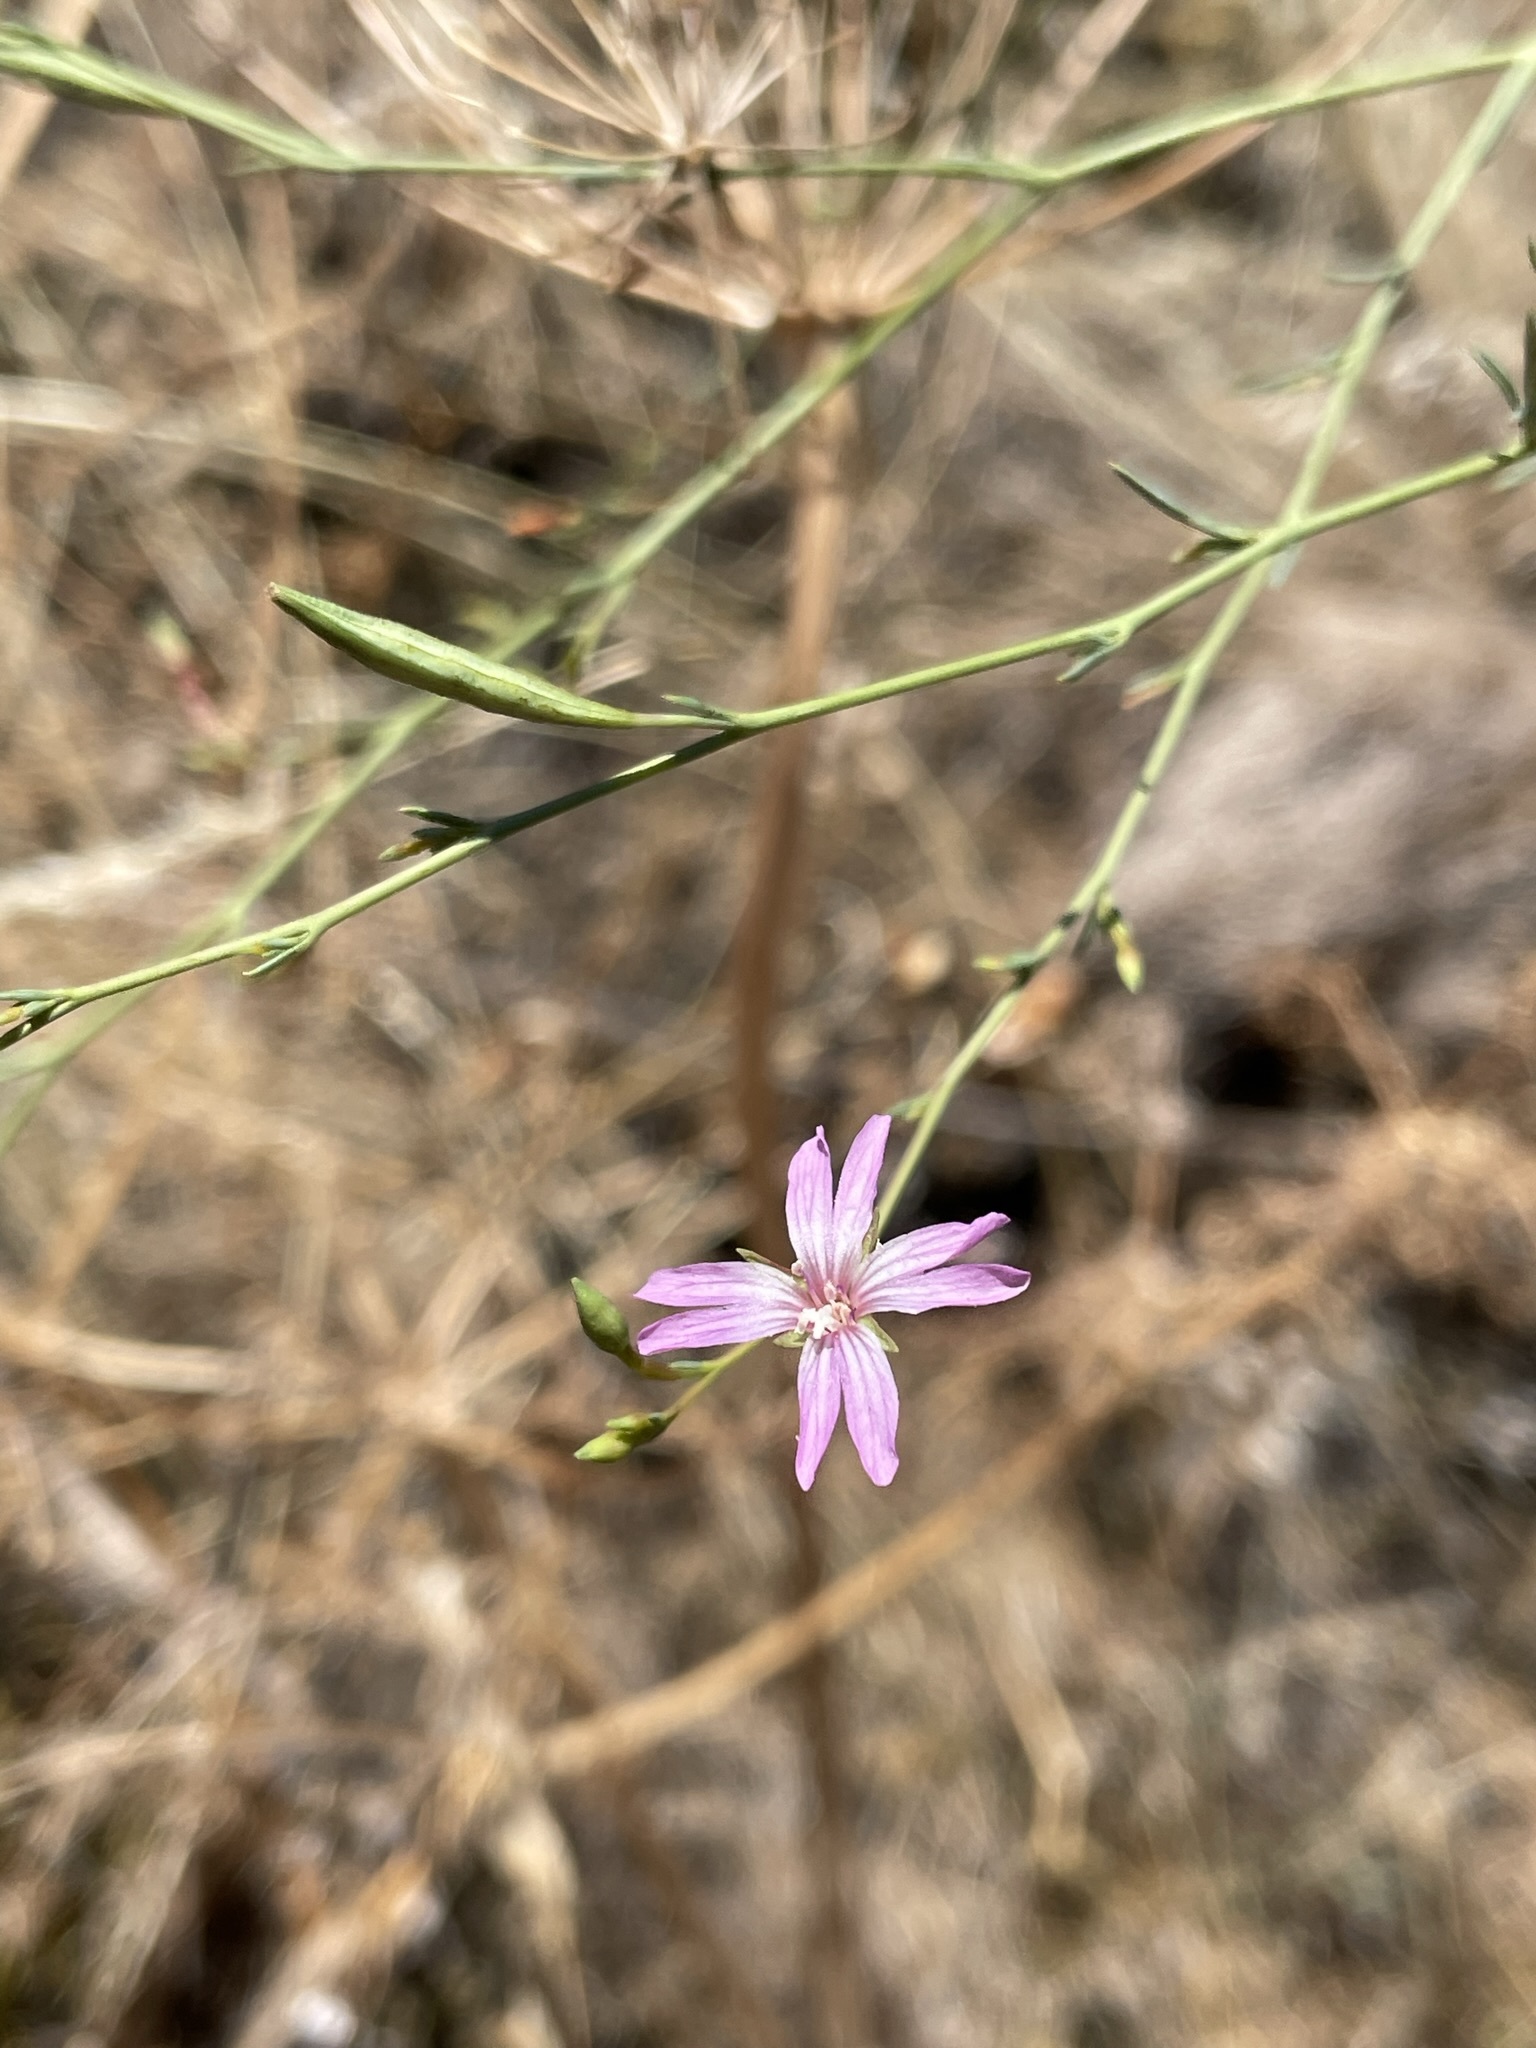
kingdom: Plantae
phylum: Tracheophyta
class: Magnoliopsida
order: Myrtales
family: Onagraceae
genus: Epilobium
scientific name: Epilobium brachycarpum
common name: Annual willowherb
